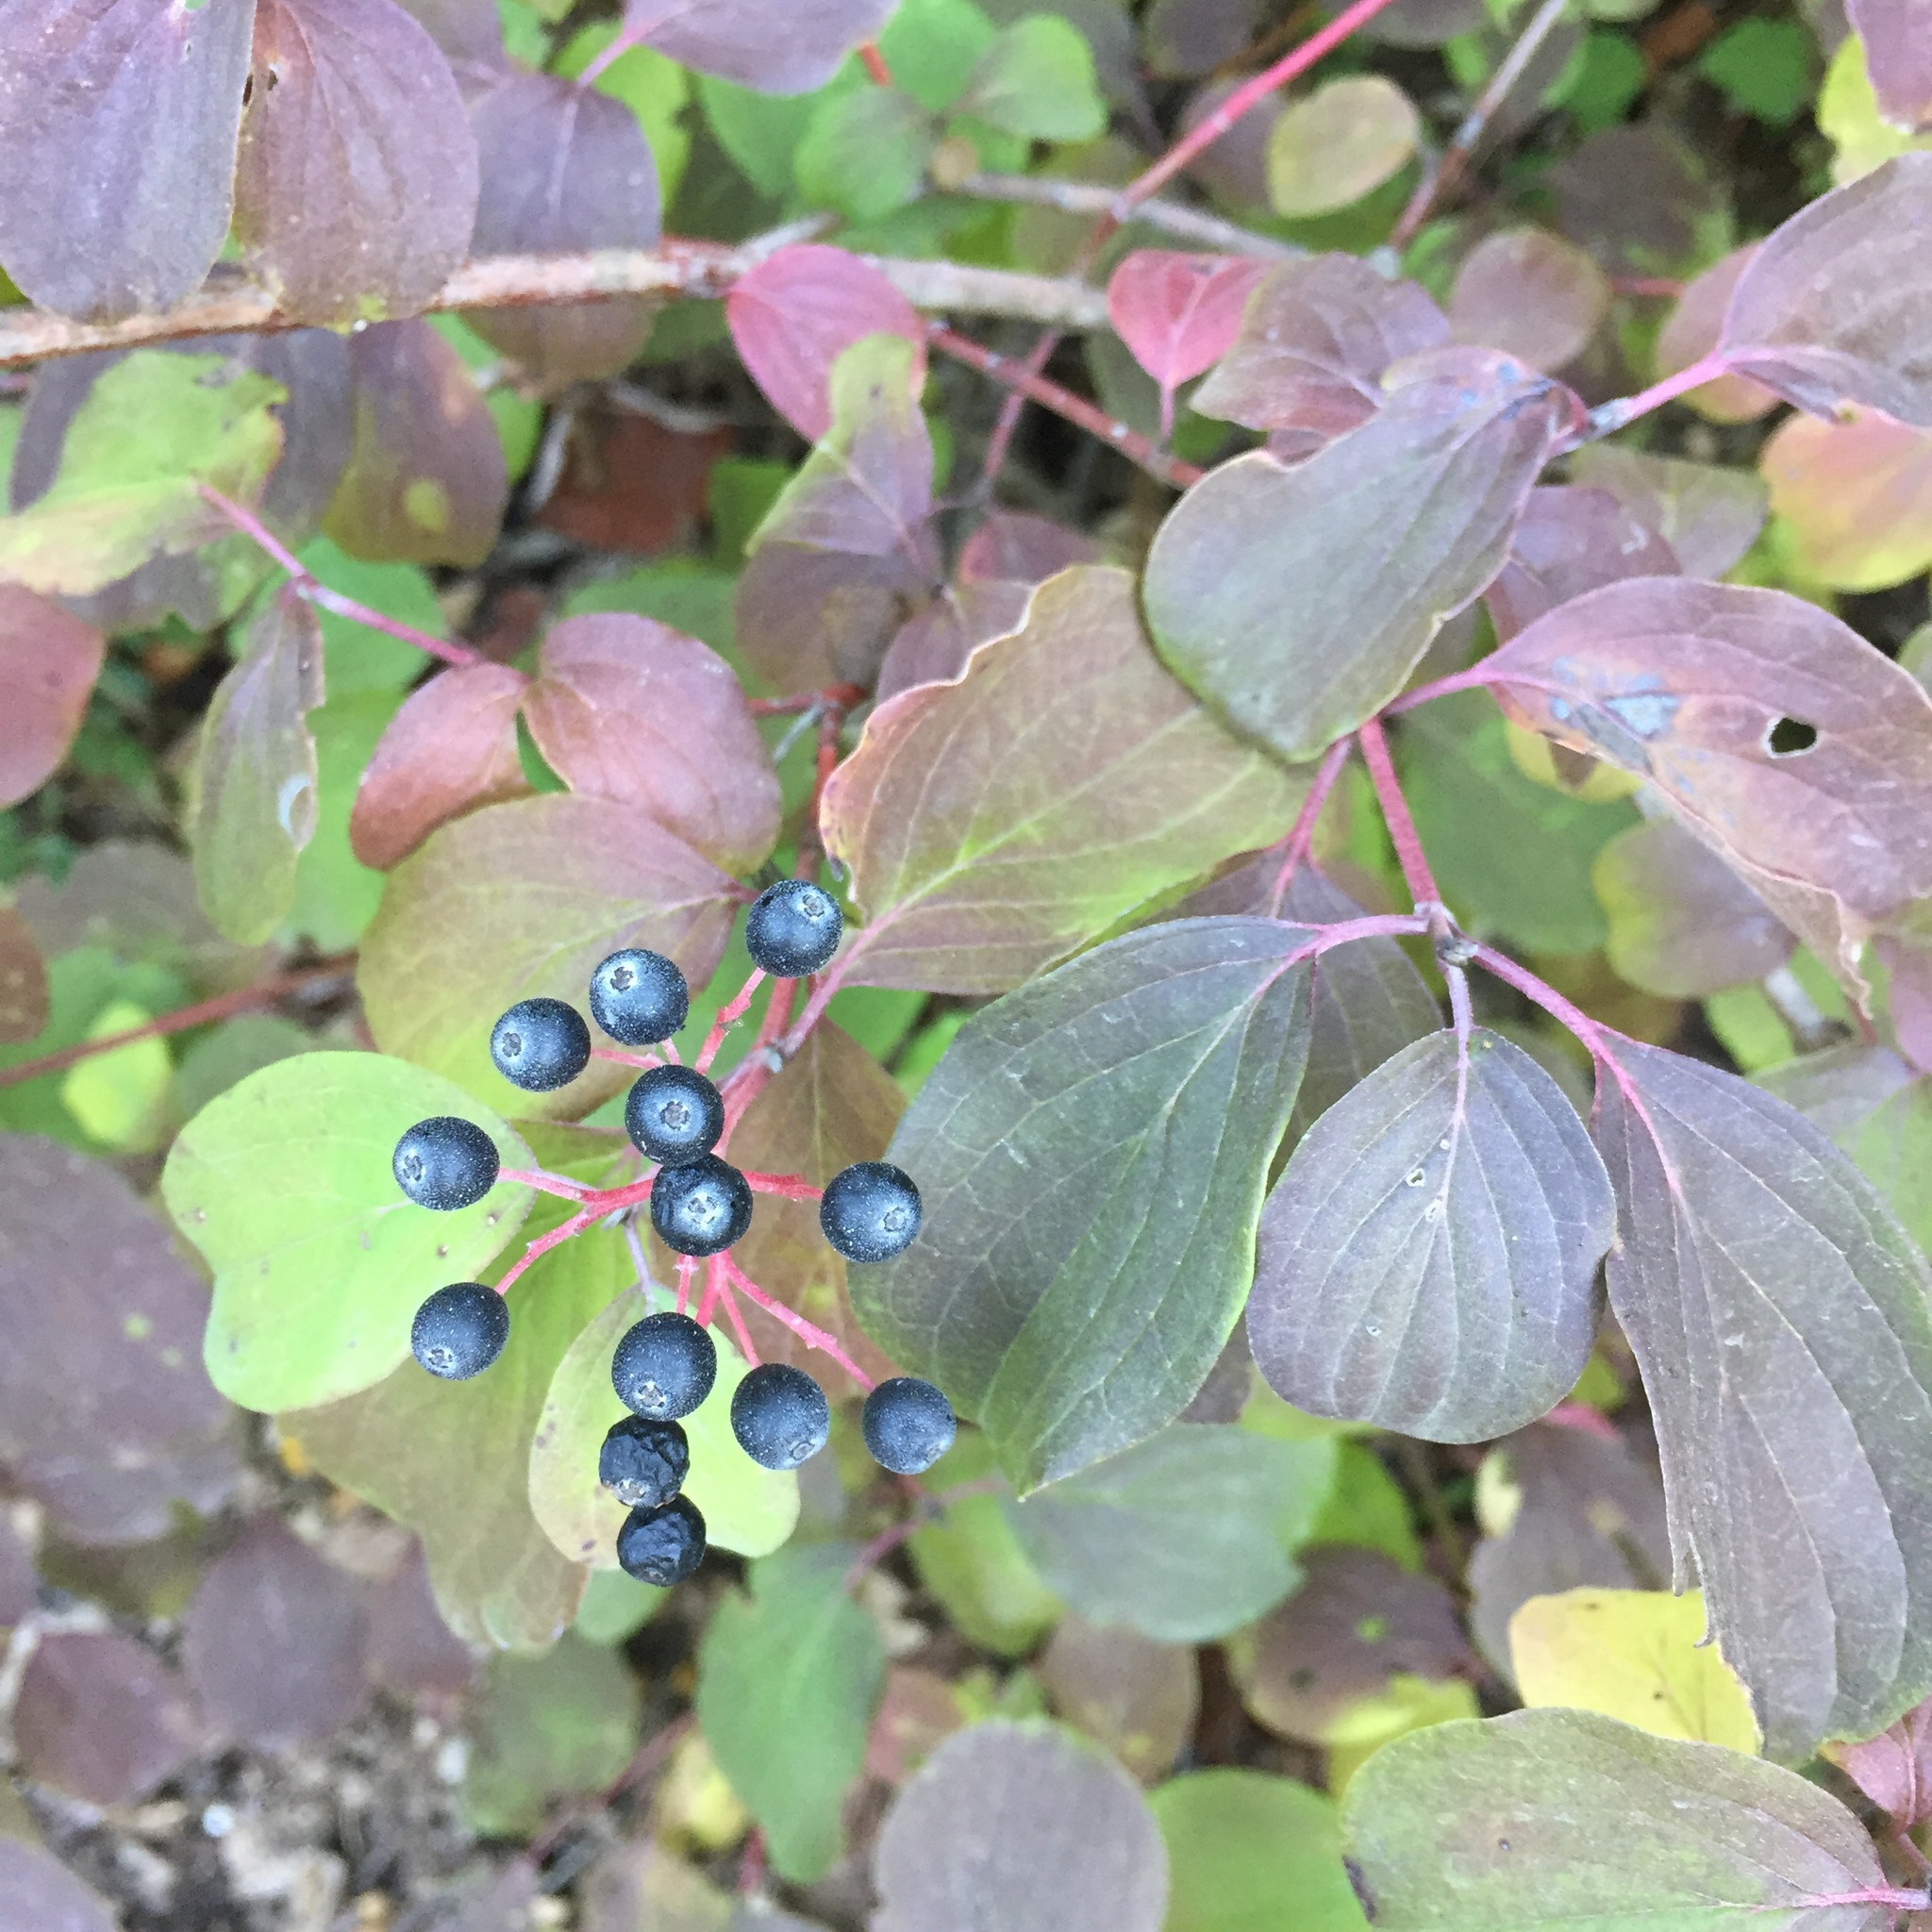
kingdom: Plantae
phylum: Tracheophyta
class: Magnoliopsida
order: Cornales
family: Cornaceae
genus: Cornus
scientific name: Cornus sanguinea
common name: Dogwood
